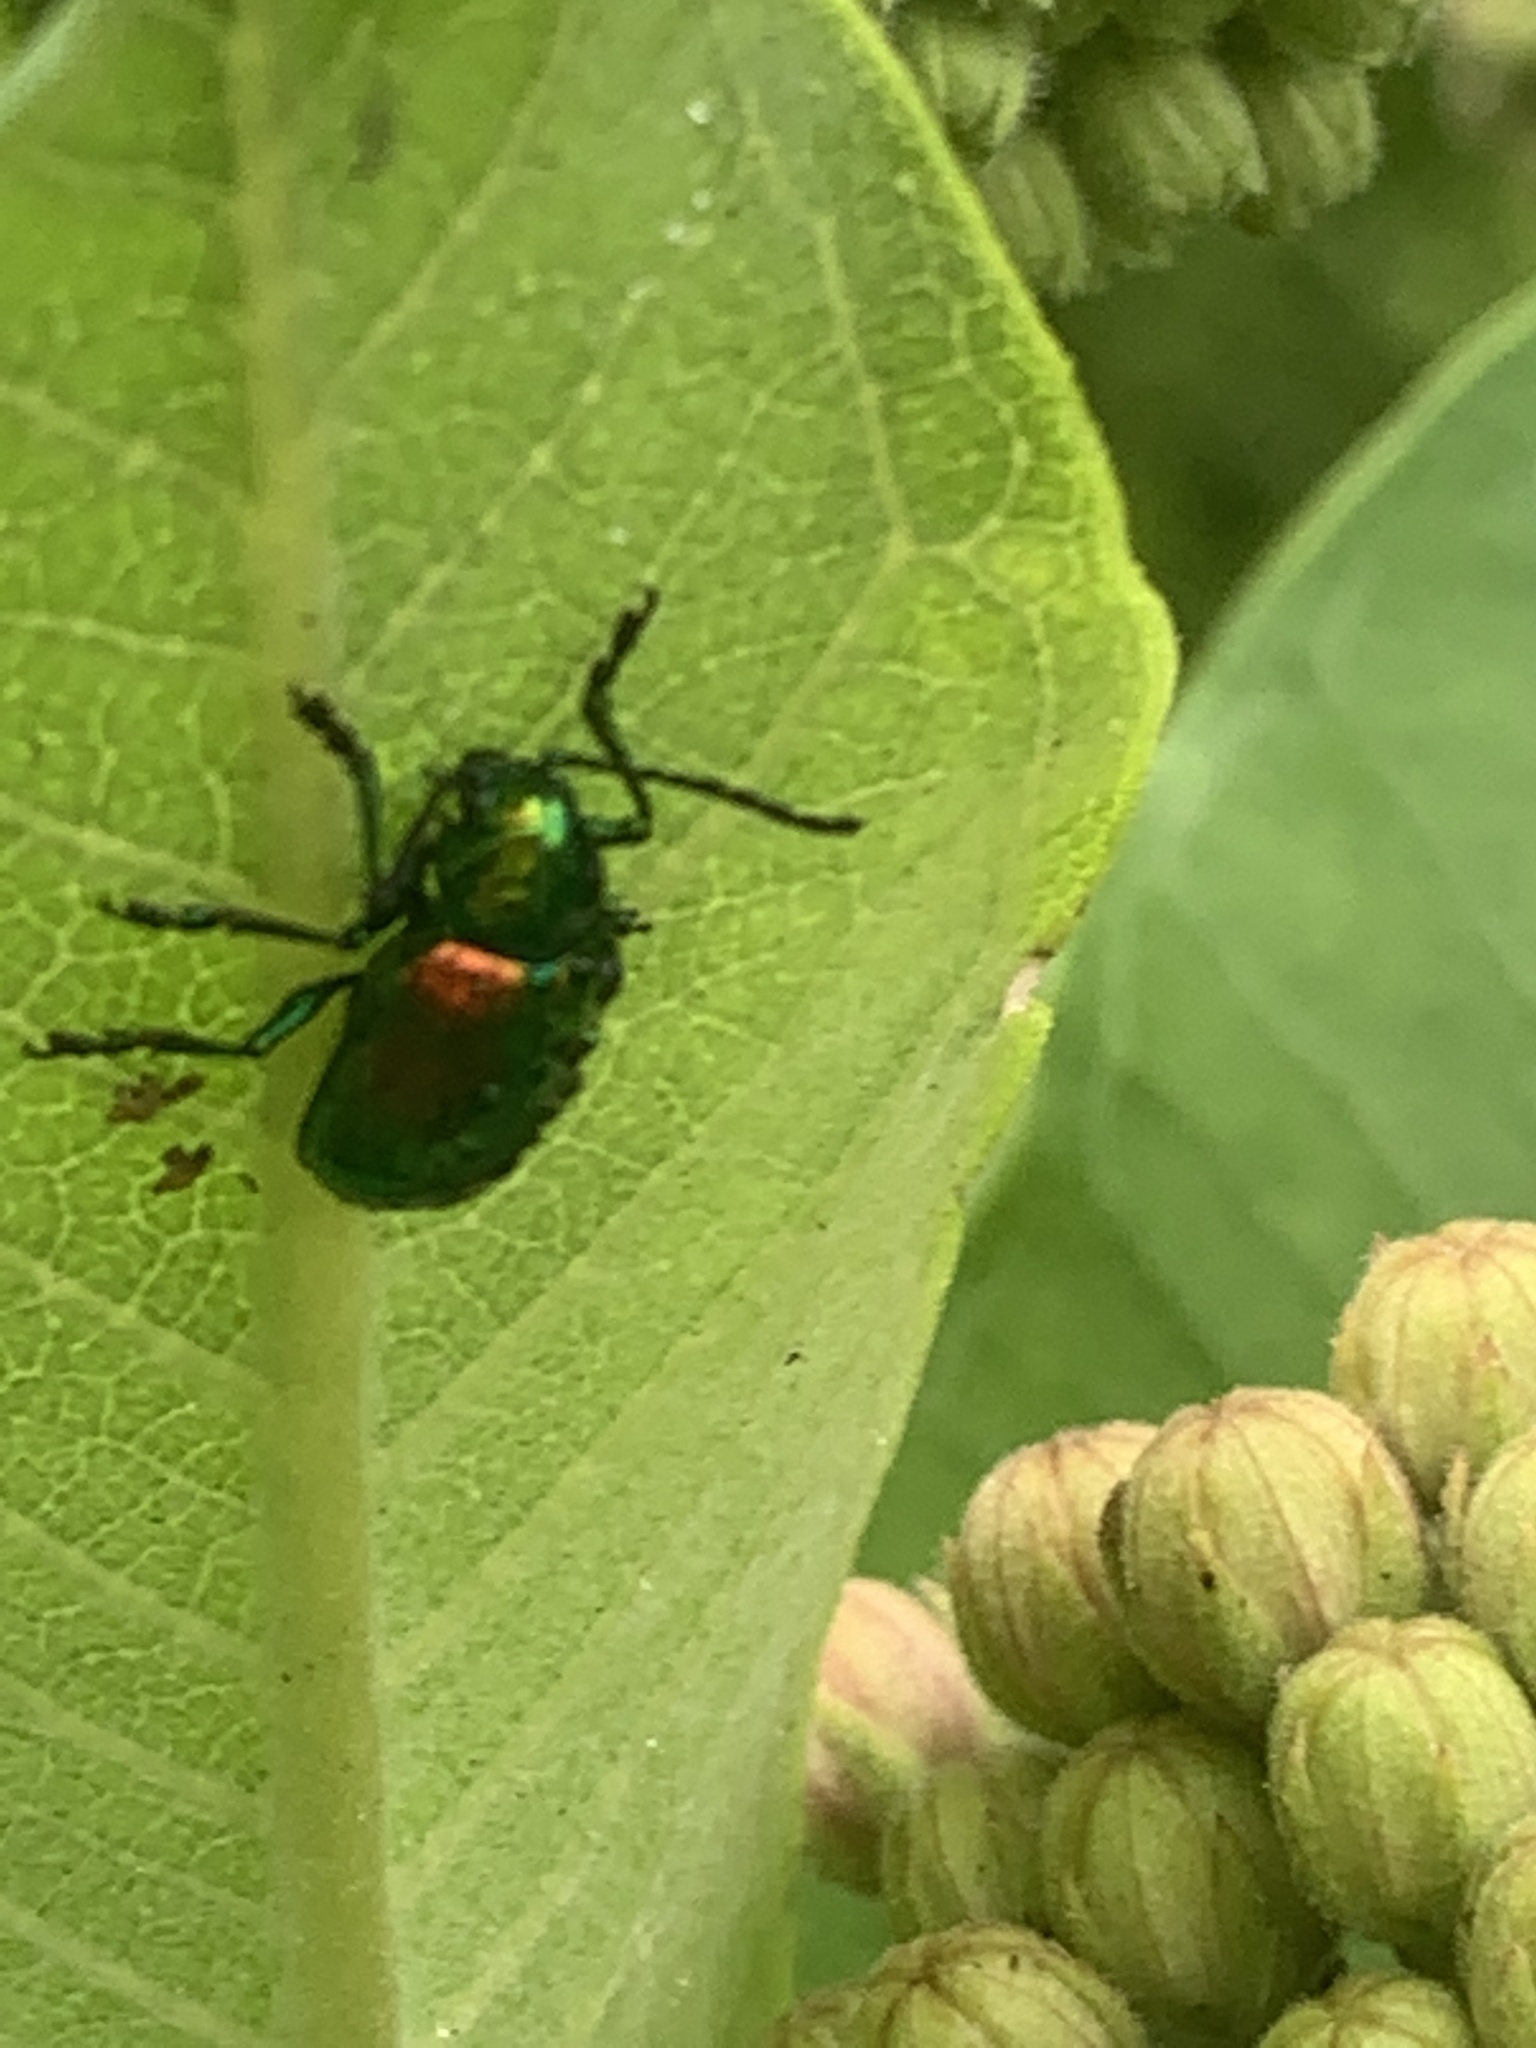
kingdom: Animalia
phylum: Arthropoda
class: Insecta
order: Coleoptera
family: Chrysomelidae
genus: Chrysochus
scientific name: Chrysochus auratus
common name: Dogbane leaf beetle
